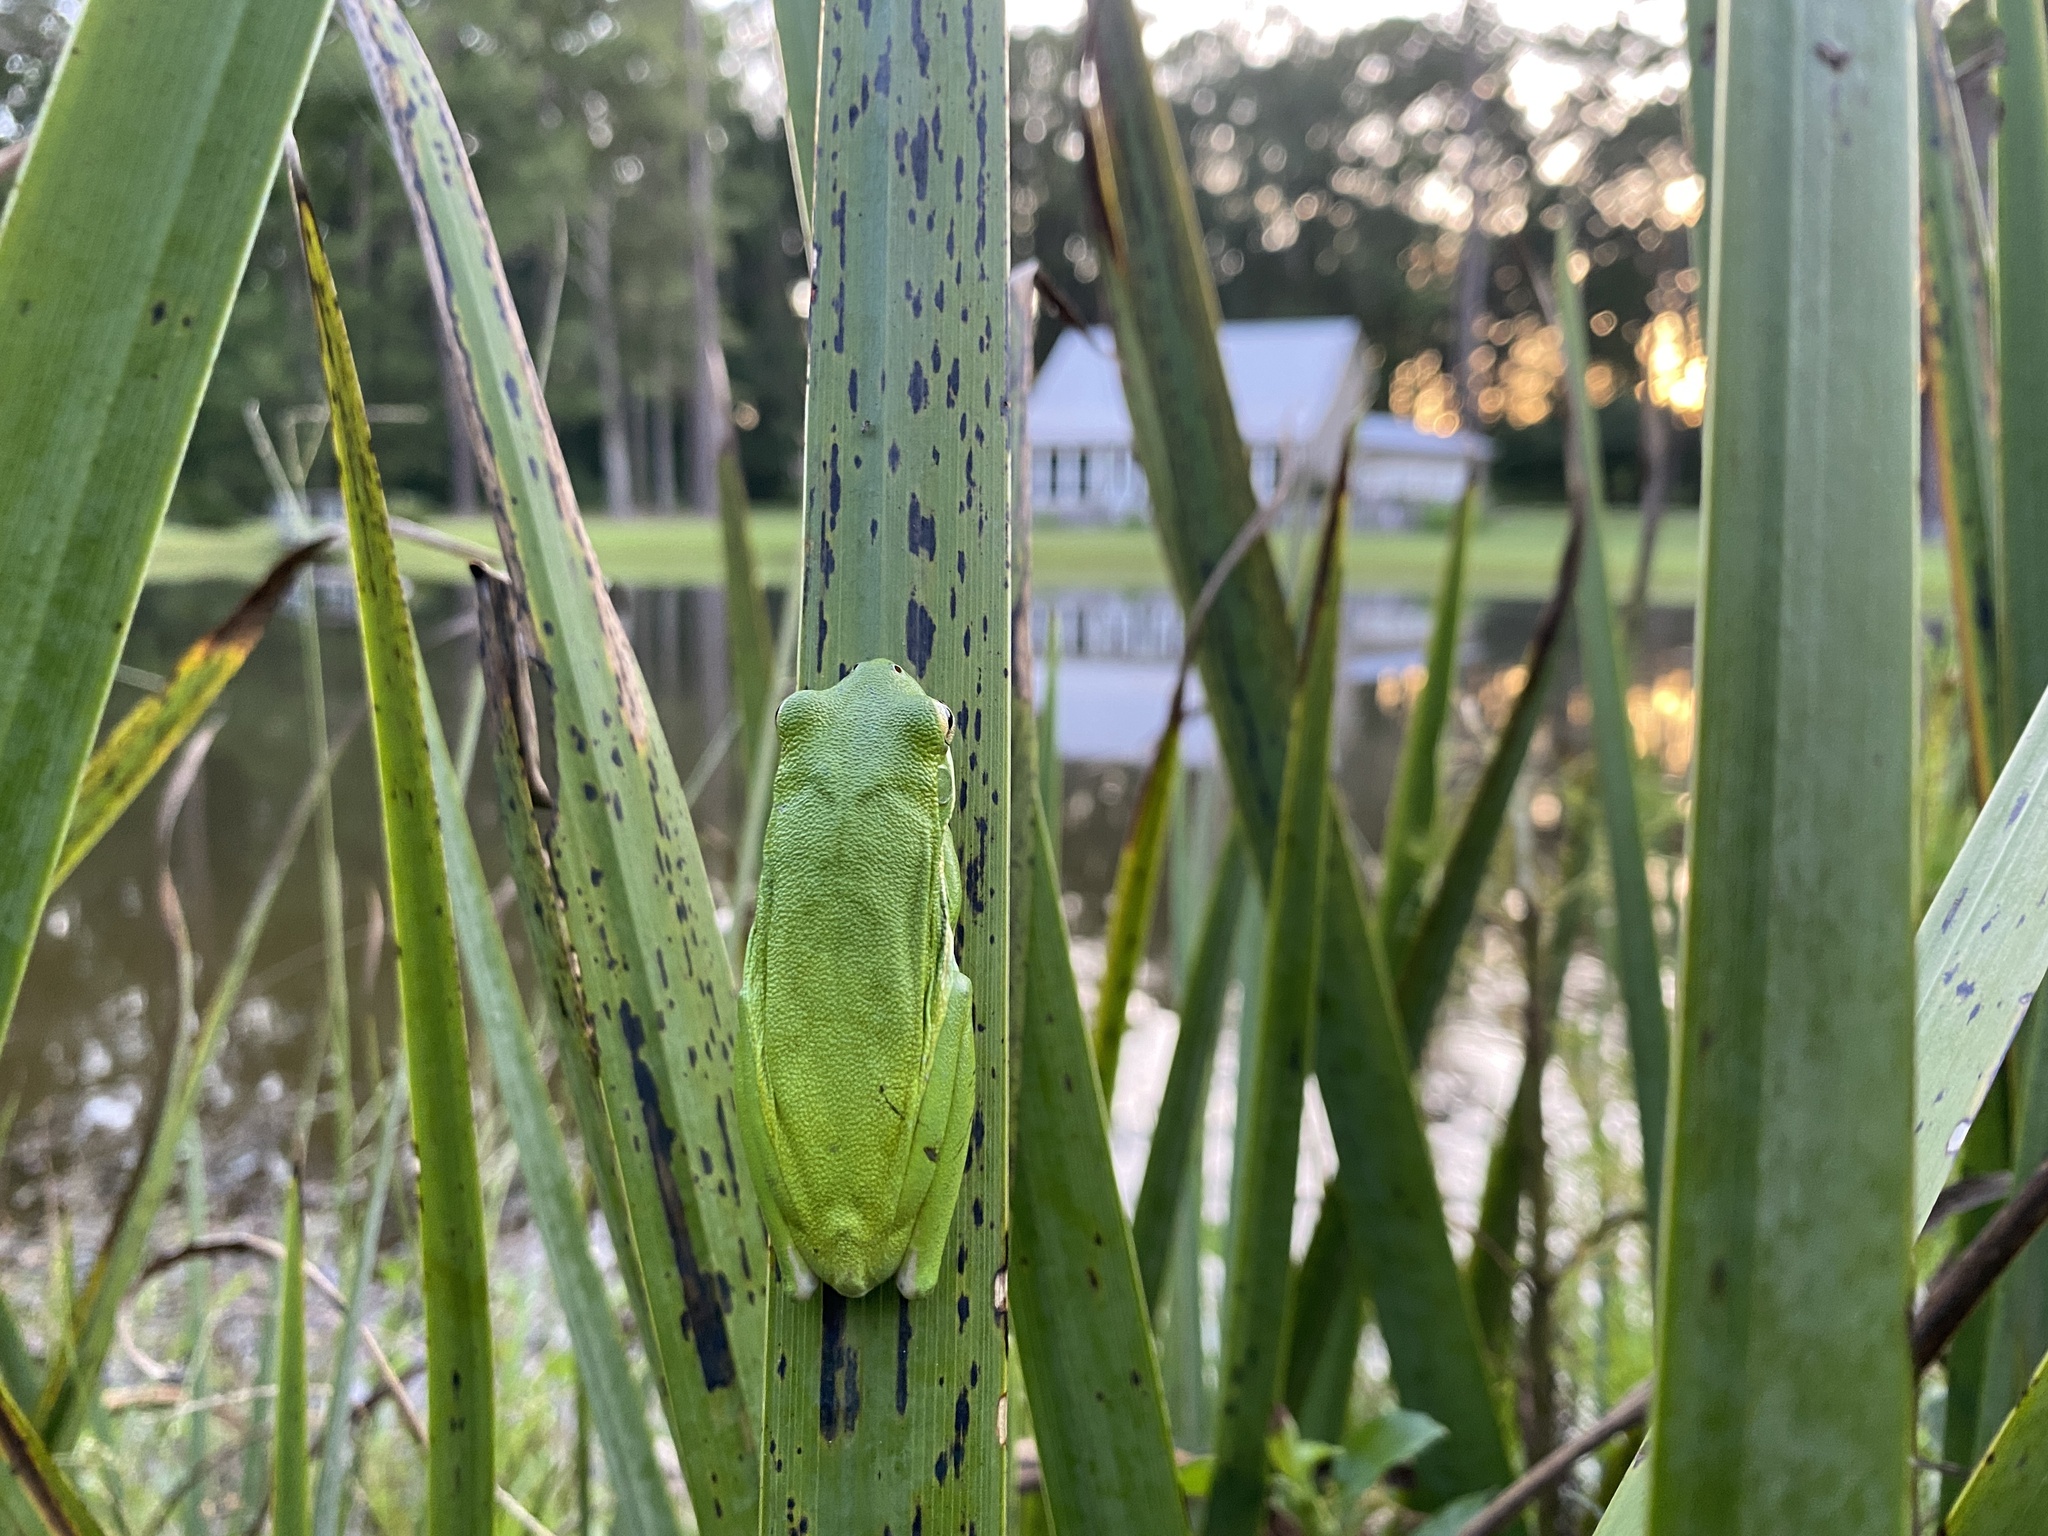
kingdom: Animalia
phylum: Chordata
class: Amphibia
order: Anura
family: Hylidae
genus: Dryophytes
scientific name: Dryophytes cinereus
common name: Green treefrog
